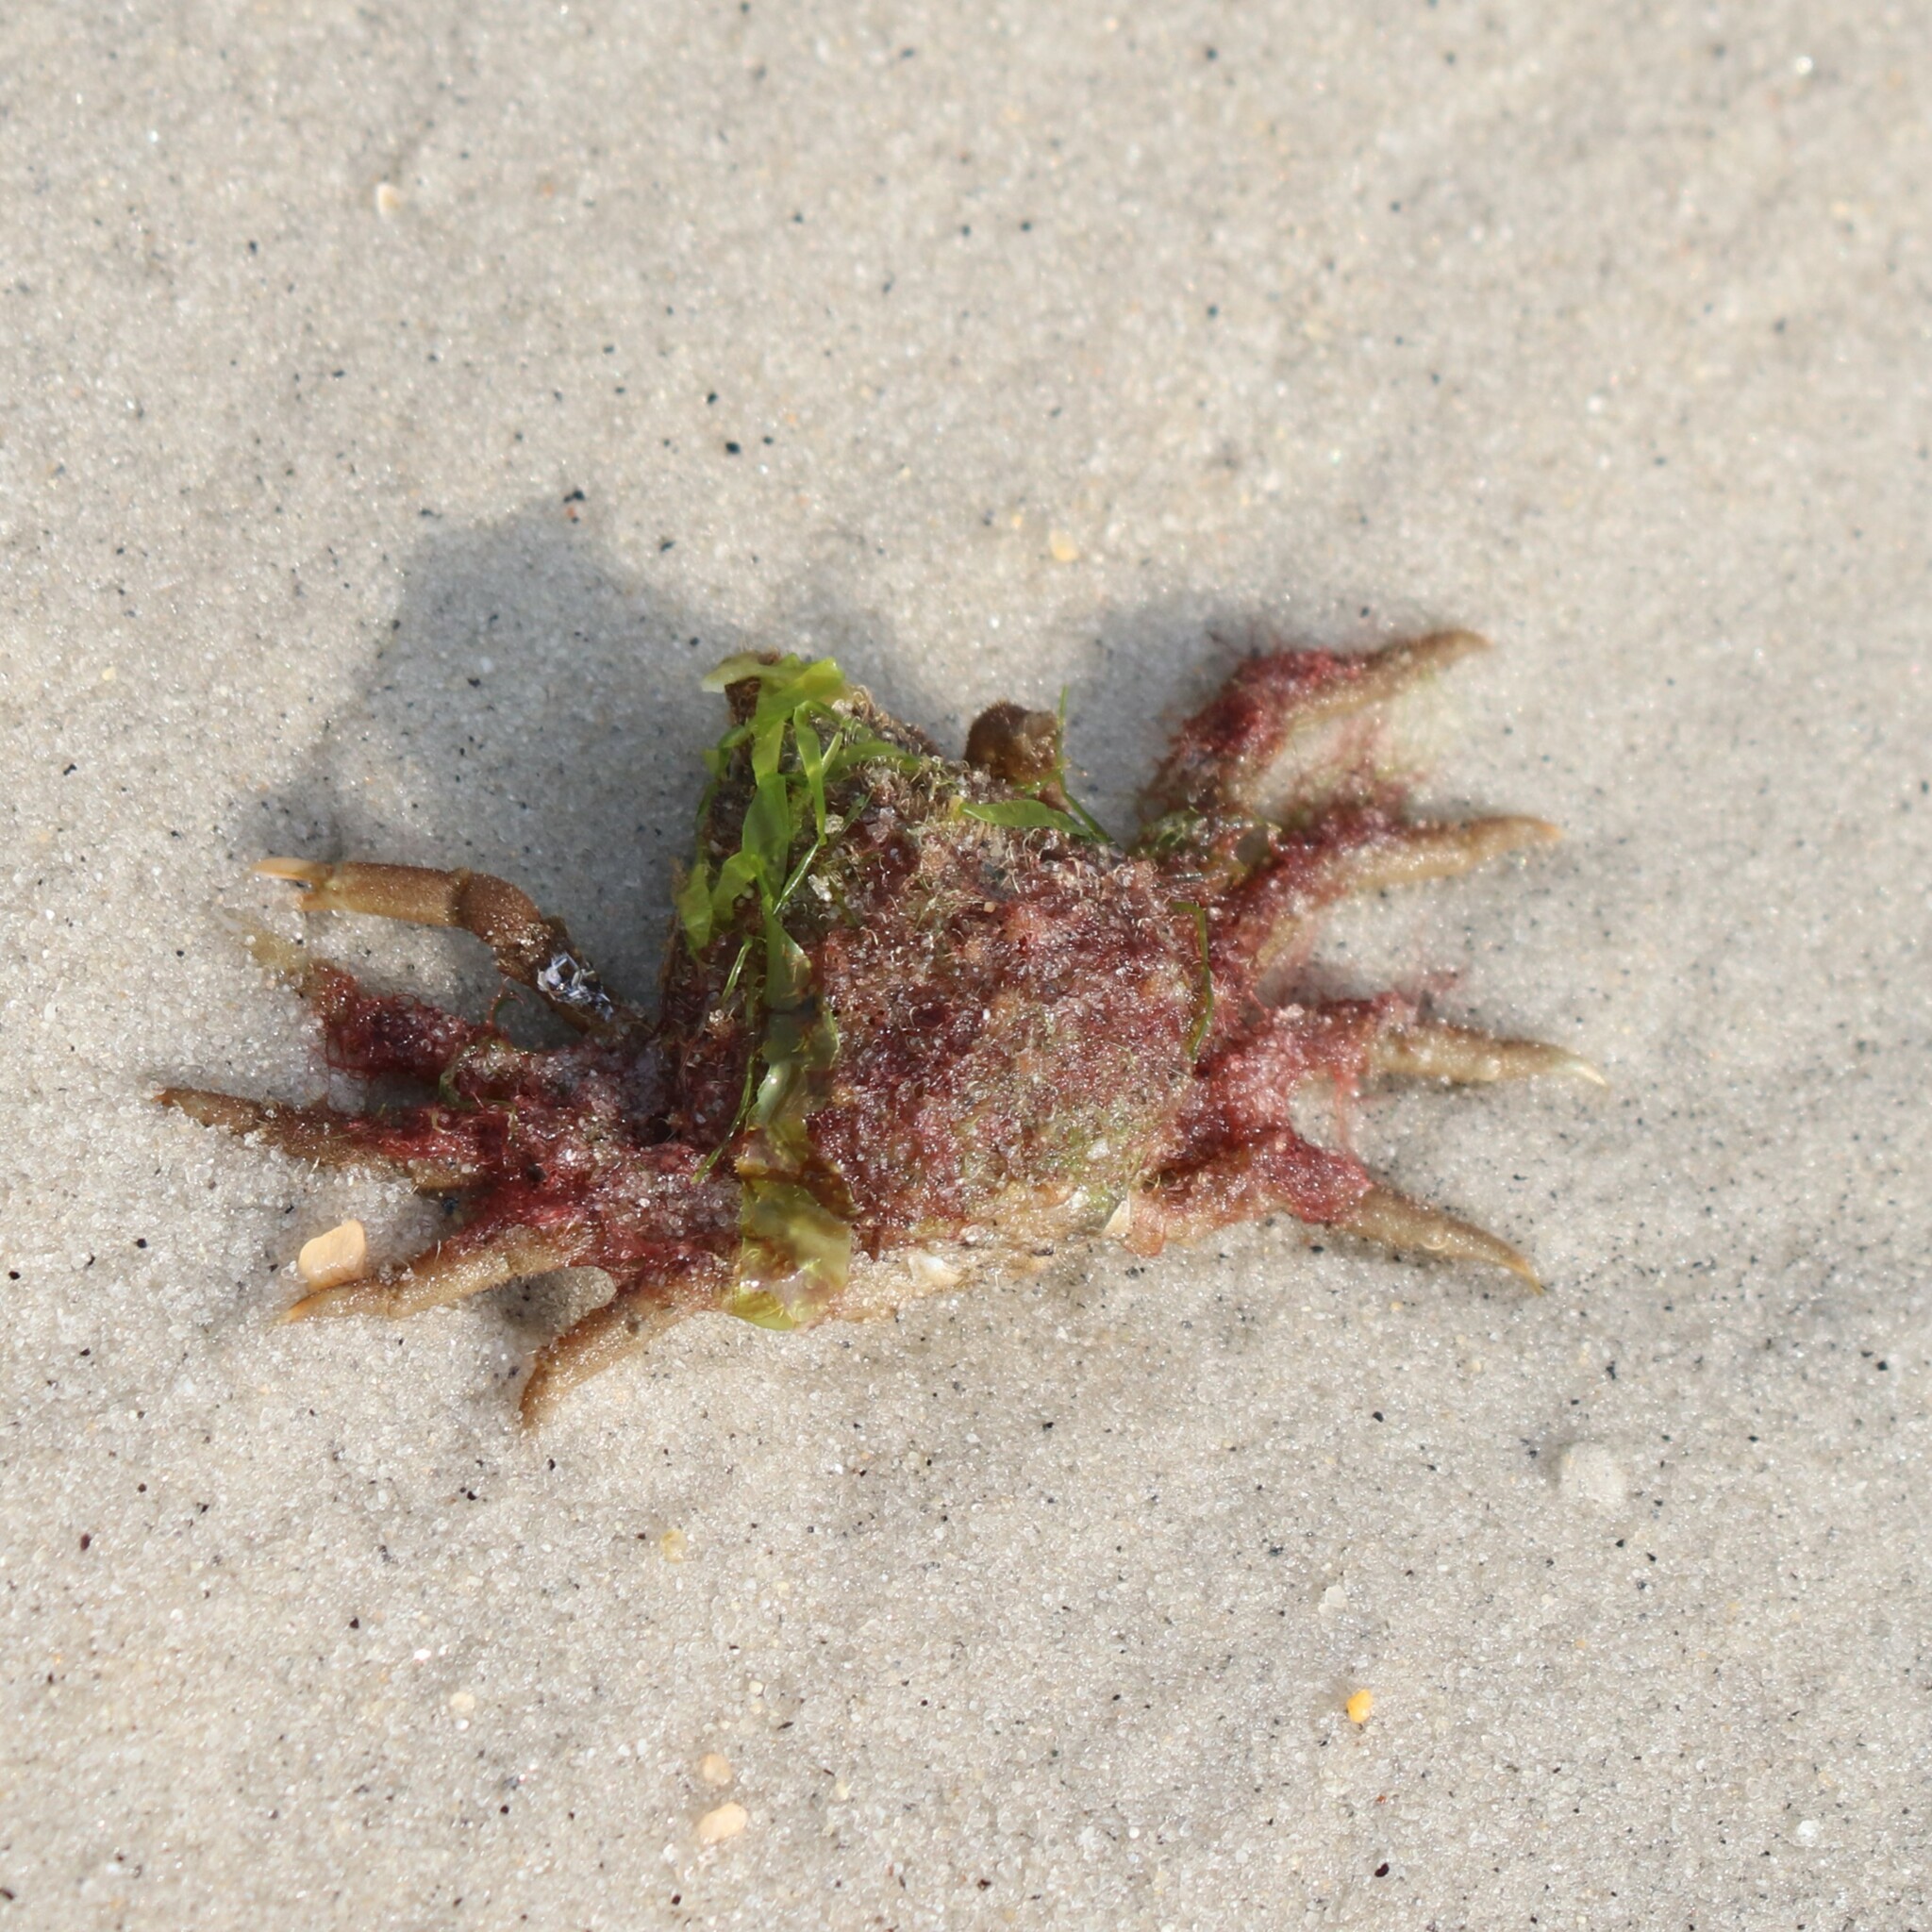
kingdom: Animalia
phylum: Arthropoda
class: Malacostraca
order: Decapoda
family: Epialtidae
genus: Libinia
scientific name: Libinia emarginata
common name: Common spider crab
